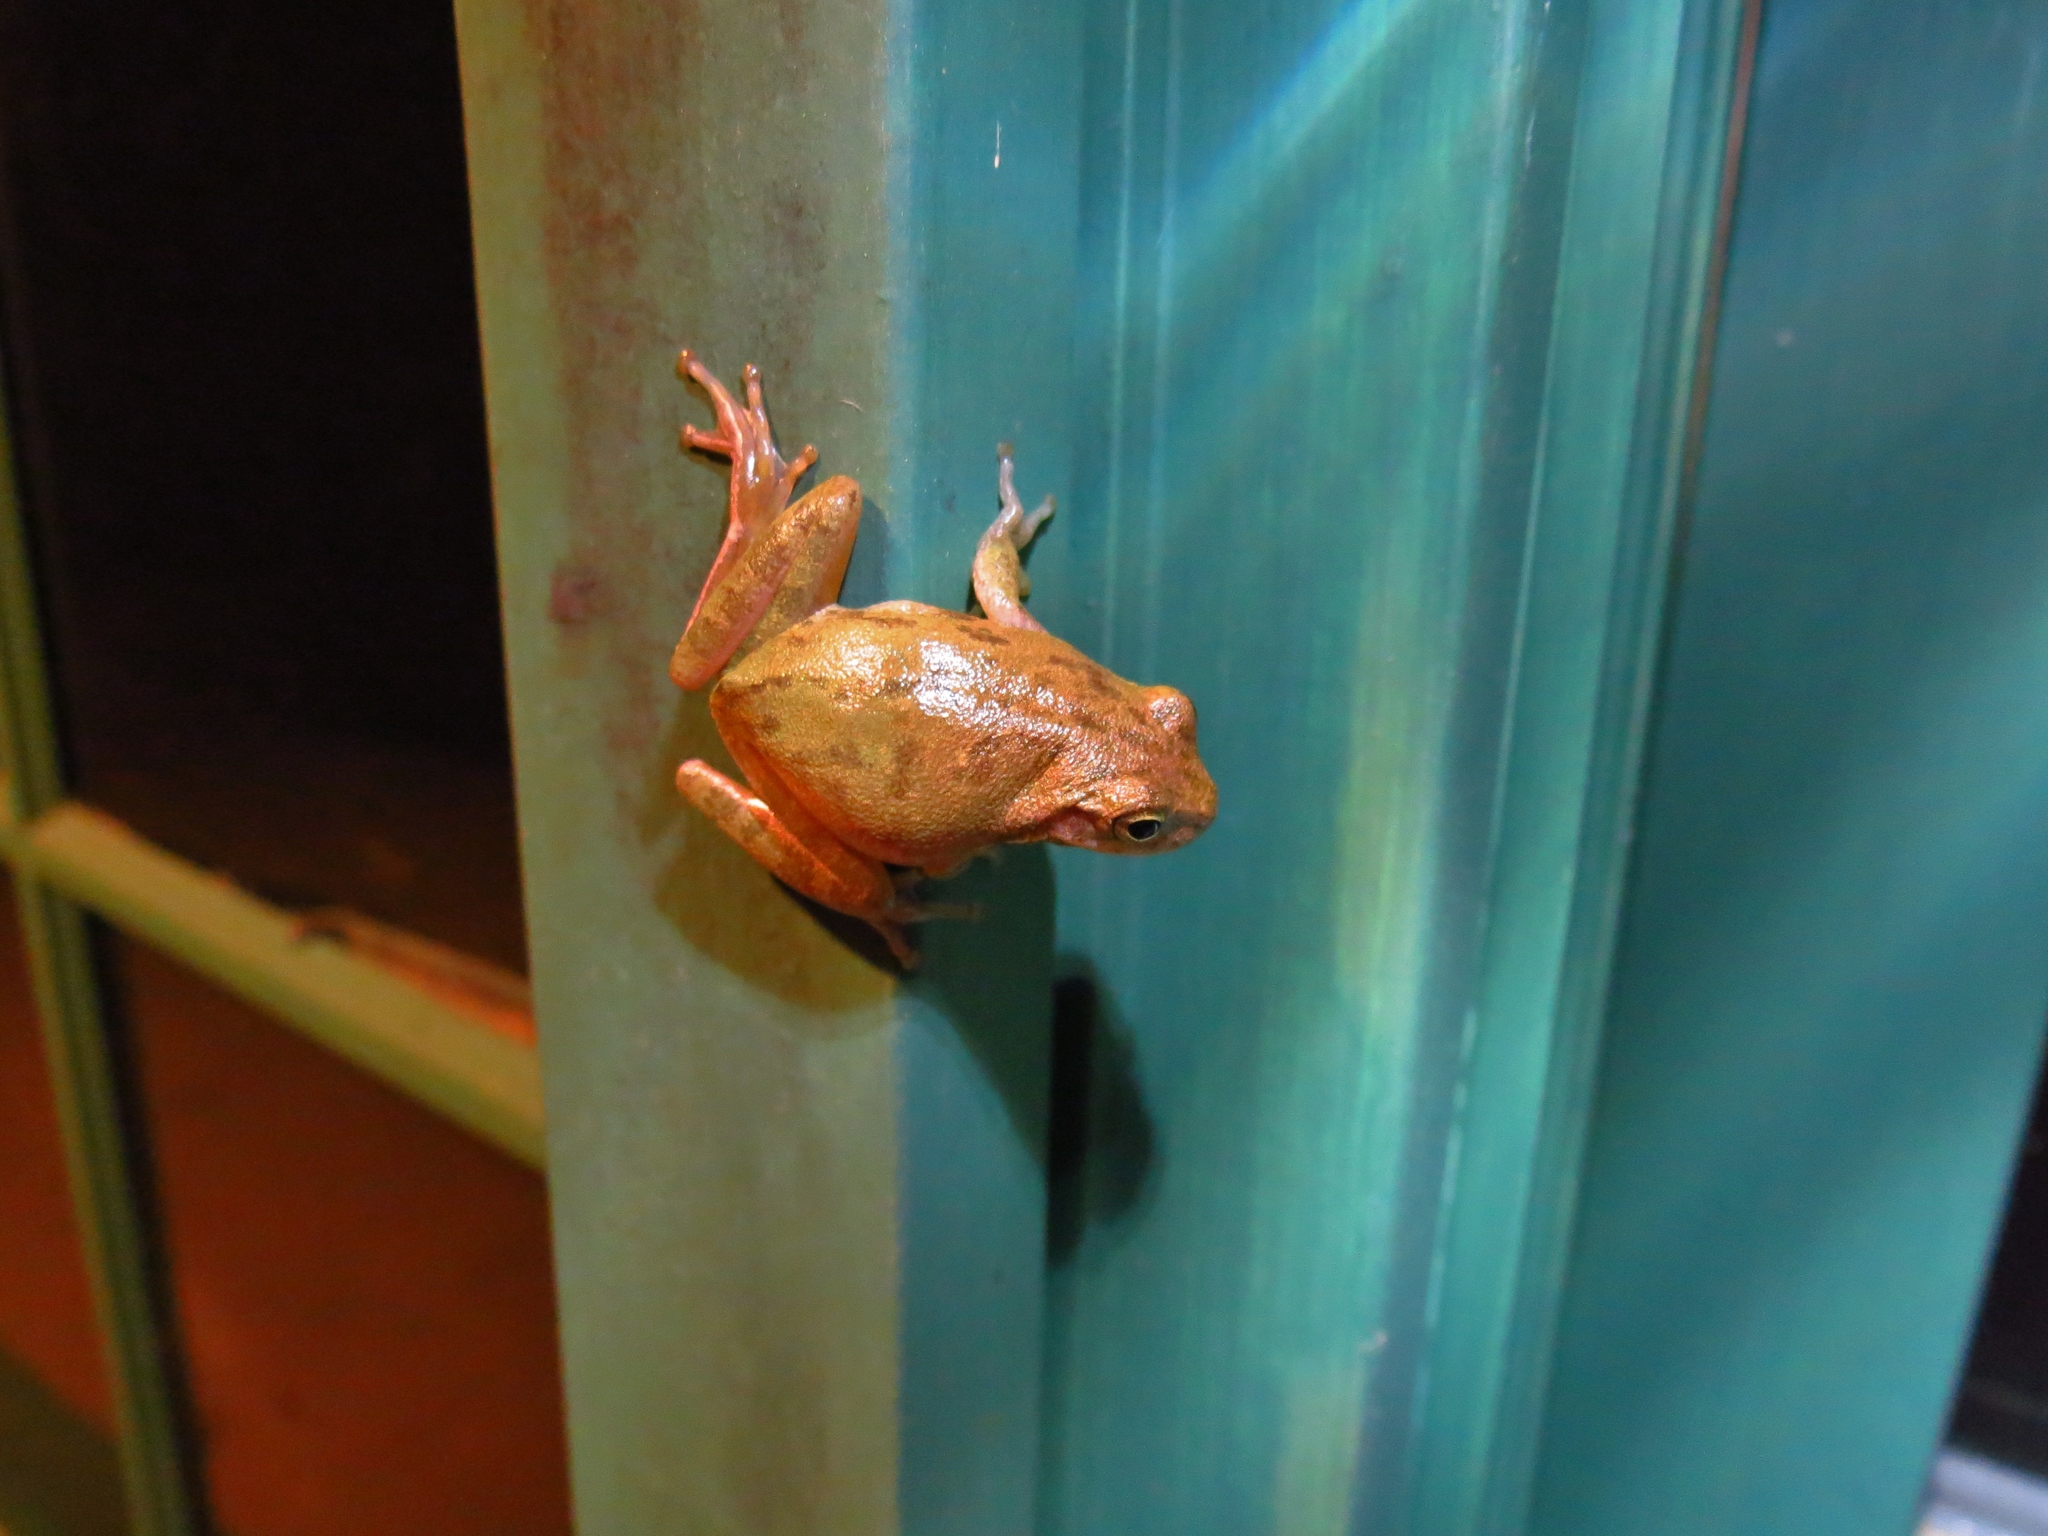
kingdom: Animalia
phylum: Chordata
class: Amphibia
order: Anura
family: Hylidae
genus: Dryophytes
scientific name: Dryophytes squirellus
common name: Squirrel treefrog
